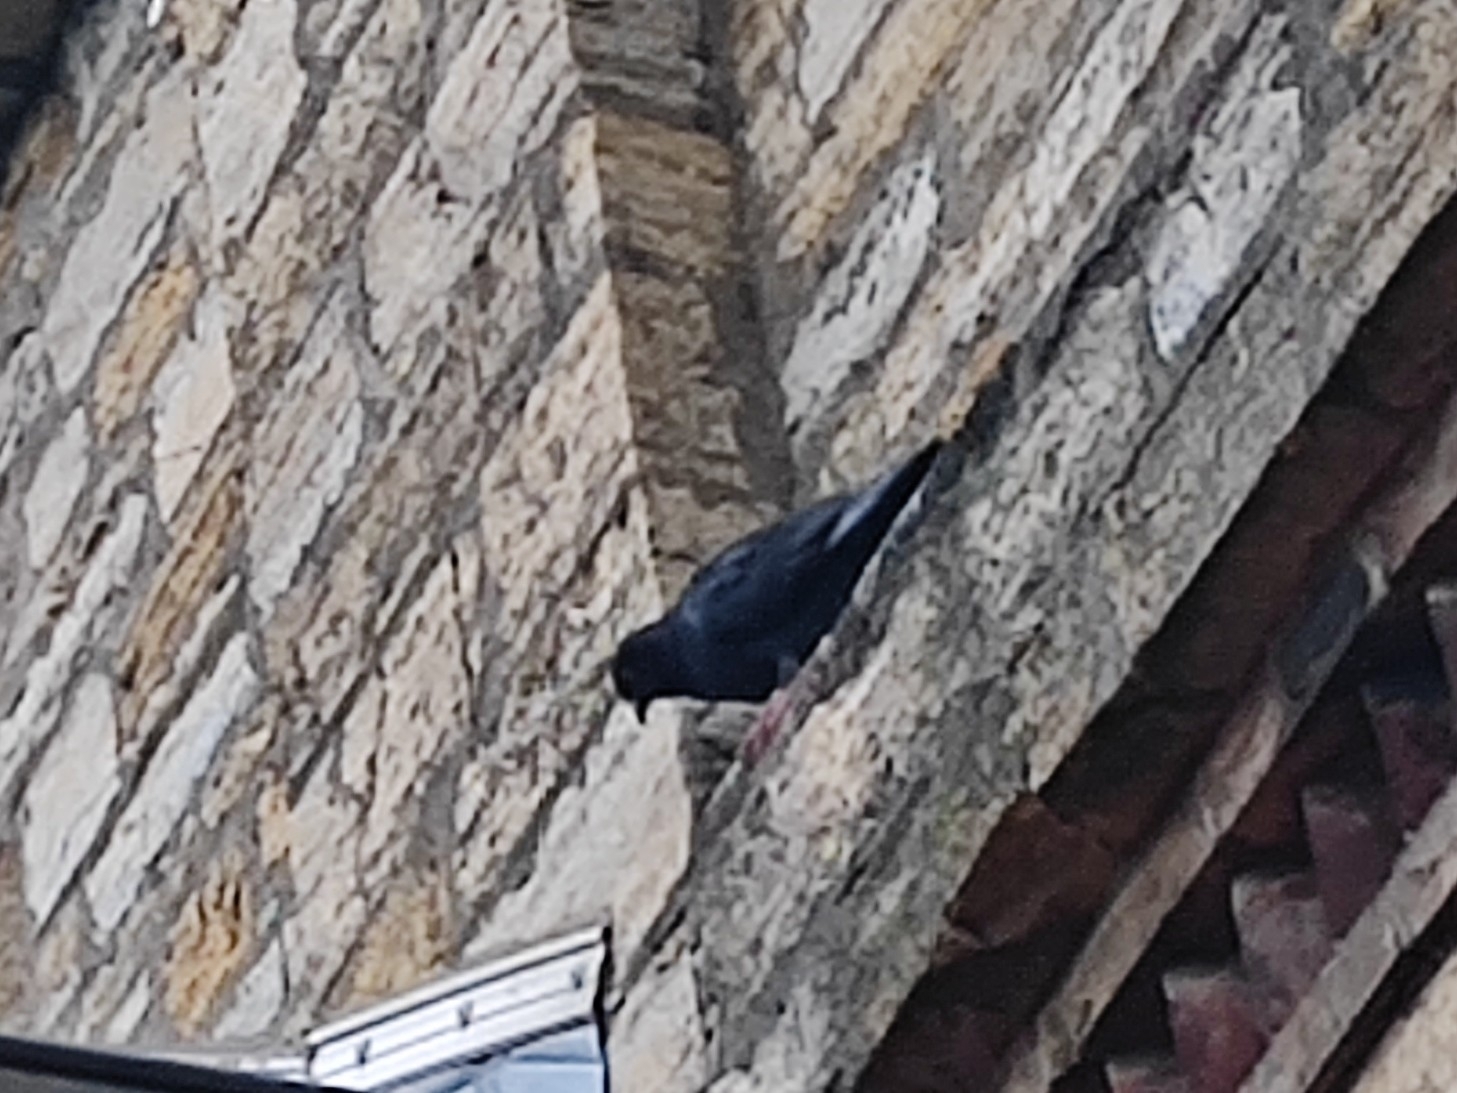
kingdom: Animalia
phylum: Chordata
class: Aves
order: Columbiformes
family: Columbidae
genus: Columba
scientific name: Columba livia
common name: Rock pigeon
